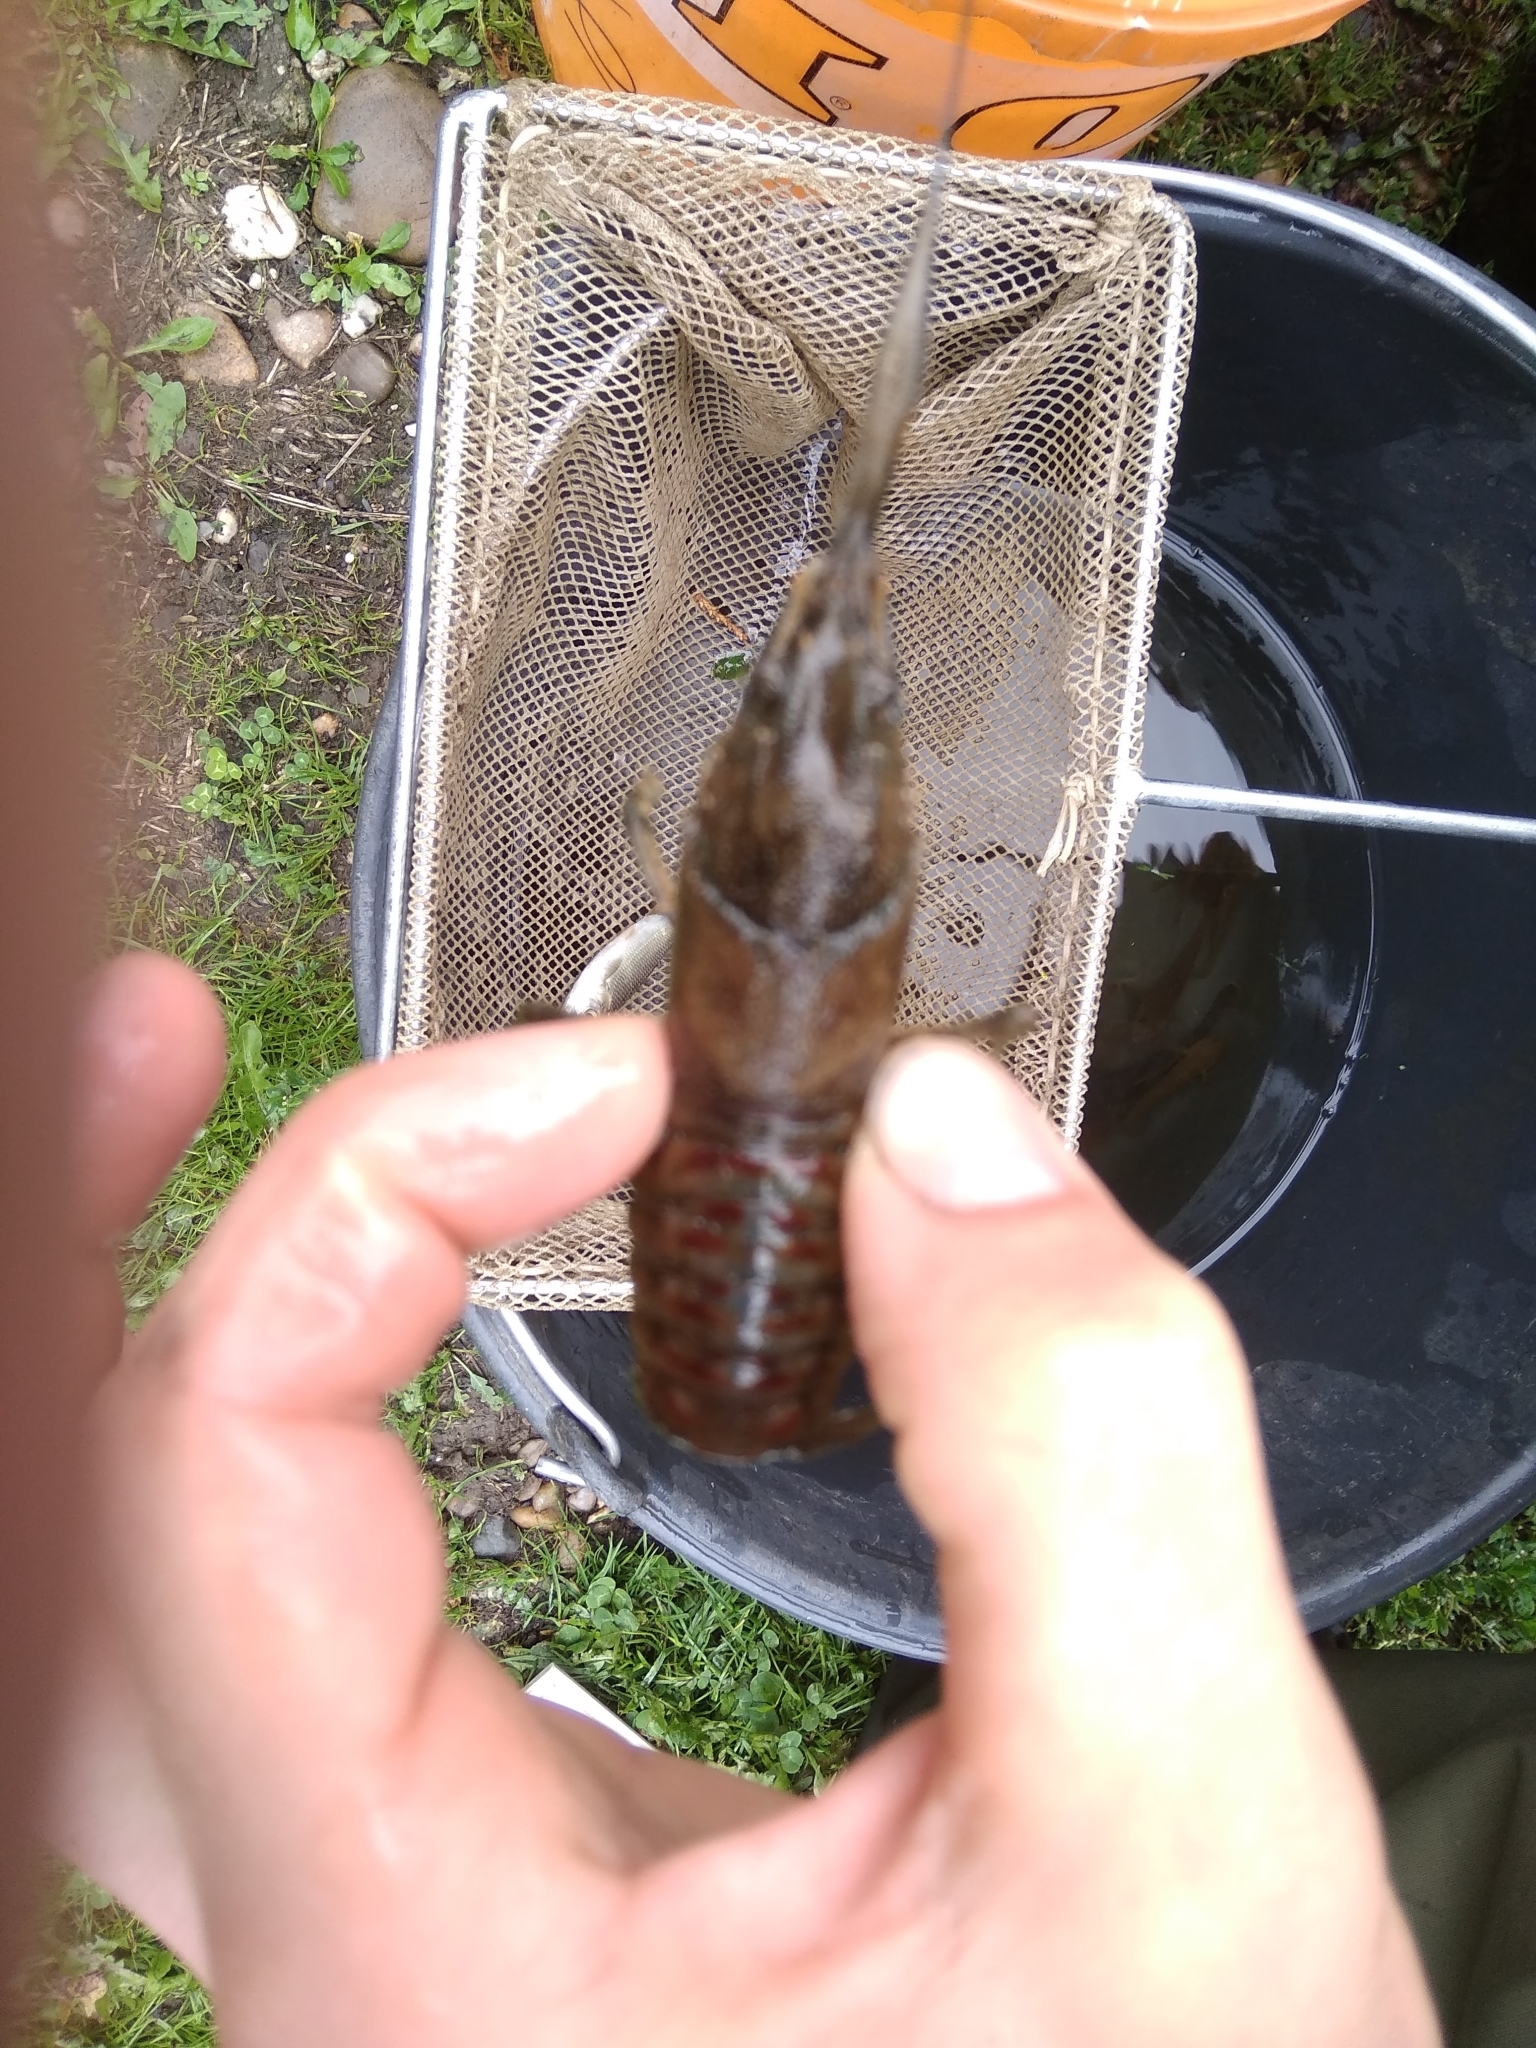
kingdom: Animalia
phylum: Arthropoda
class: Malacostraca
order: Decapoda
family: Cambaridae
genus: Faxonius
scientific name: Faxonius limosus
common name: American crayfish
